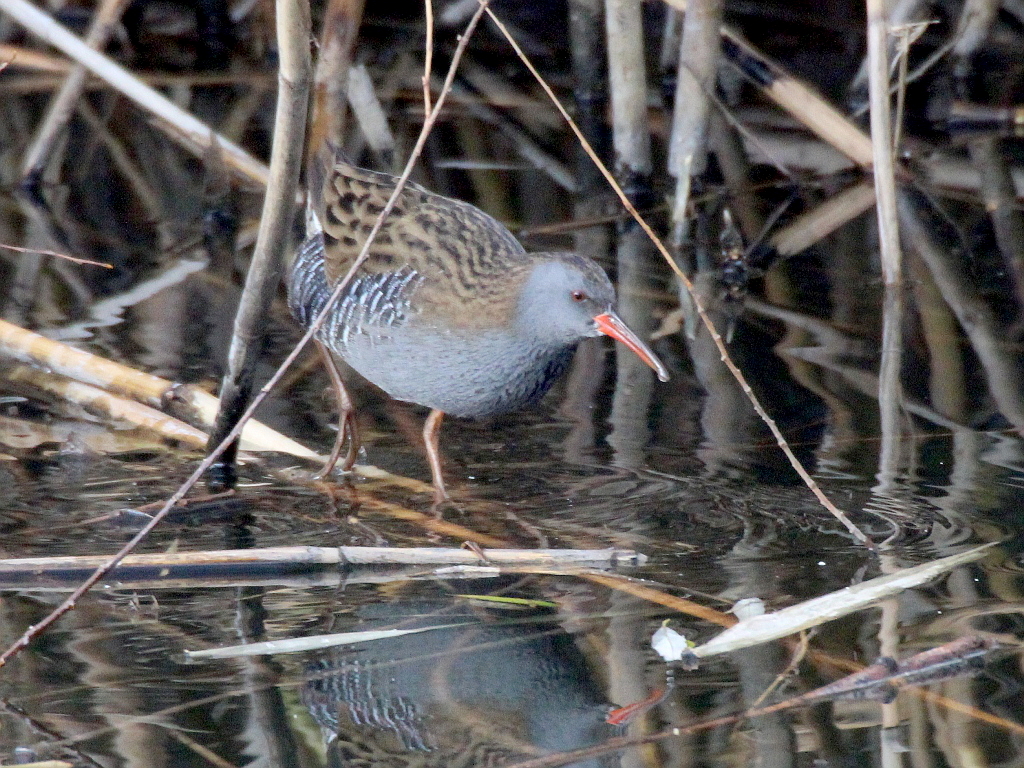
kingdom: Animalia
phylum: Chordata
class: Aves
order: Gruiformes
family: Rallidae
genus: Rallus
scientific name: Rallus aquaticus
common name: Water rail
